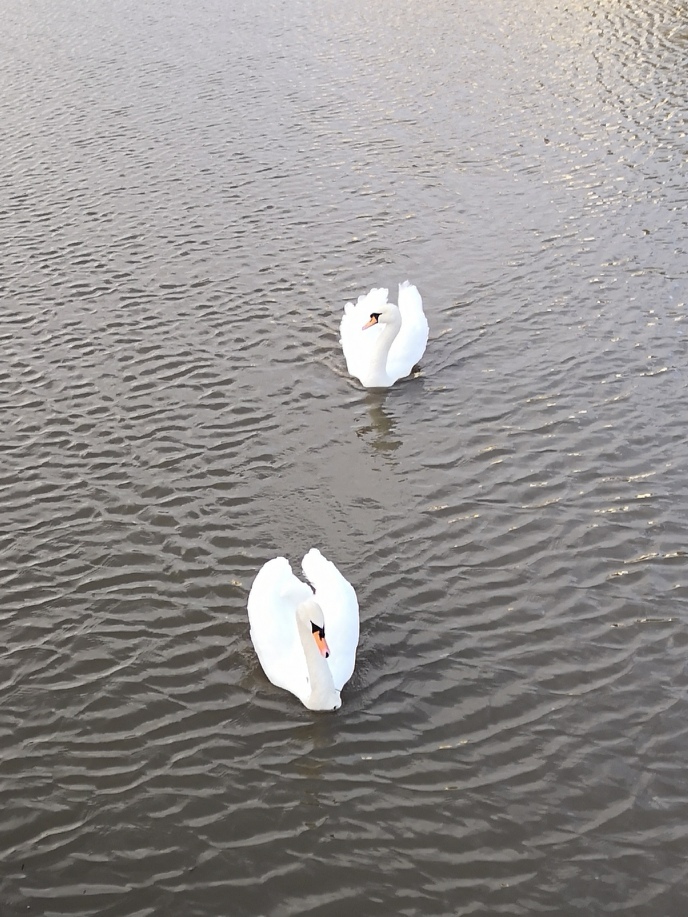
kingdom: Animalia
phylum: Chordata
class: Aves
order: Anseriformes
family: Anatidae
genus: Cygnus
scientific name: Cygnus olor
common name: Mute swan
